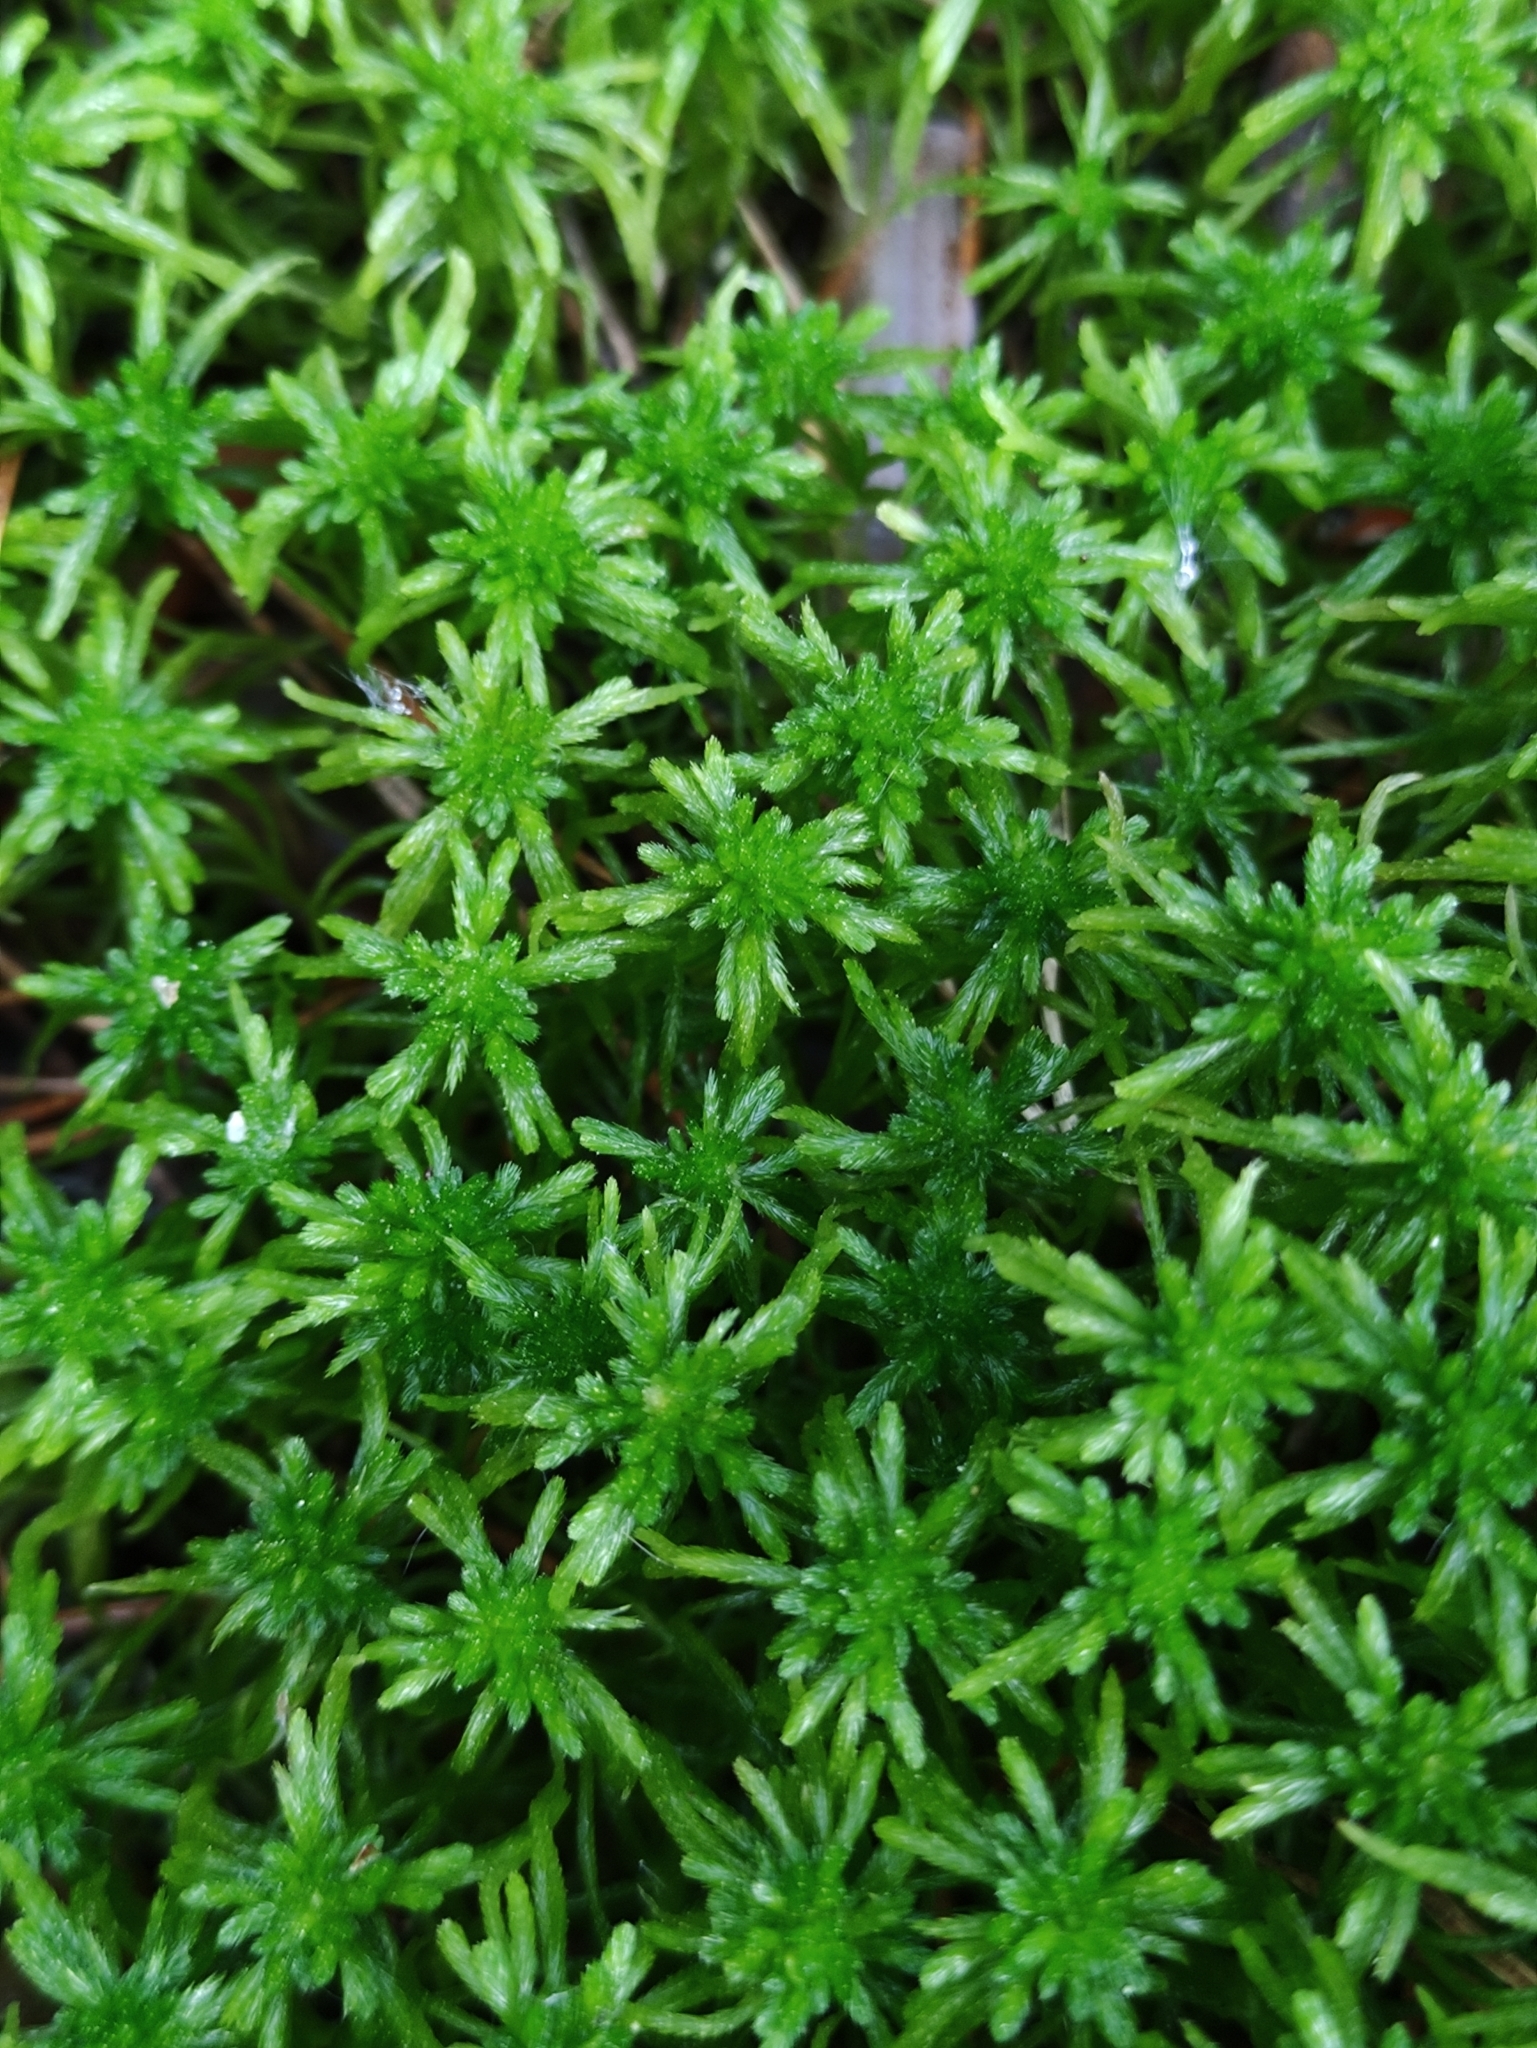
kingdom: Plantae
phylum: Bryophyta
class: Sphagnopsida
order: Sphagnales
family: Sphagnaceae
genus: Sphagnum
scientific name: Sphagnum girgensohnii
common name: Girgensohn's peat moss
